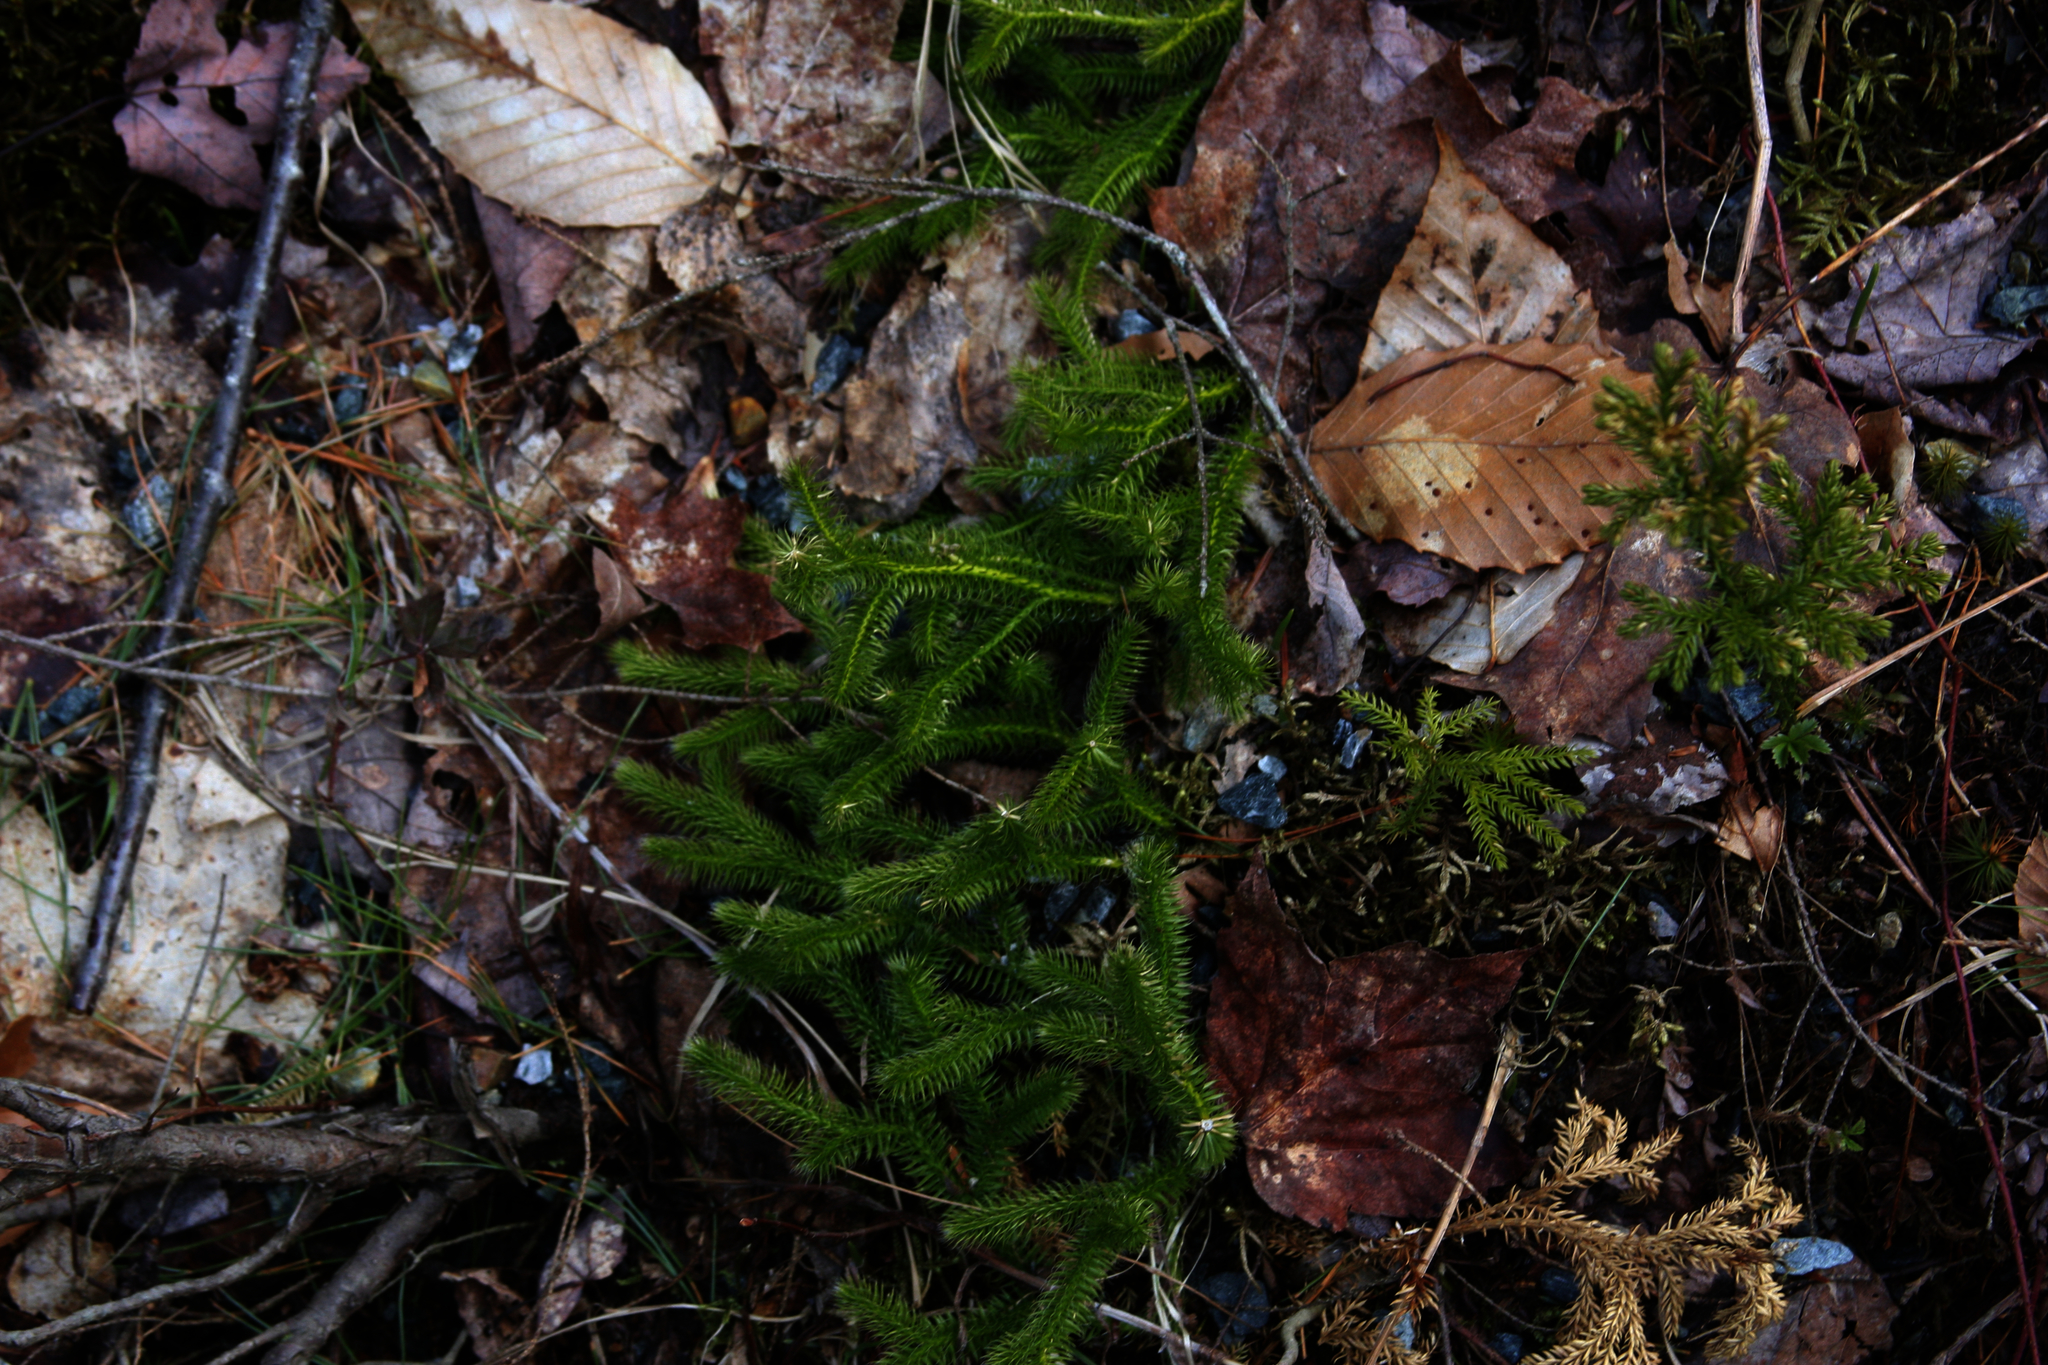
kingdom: Plantae
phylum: Tracheophyta
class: Lycopodiopsida
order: Lycopodiales
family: Lycopodiaceae
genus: Lycopodium
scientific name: Lycopodium clavatum
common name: Stag's-horn clubmoss
